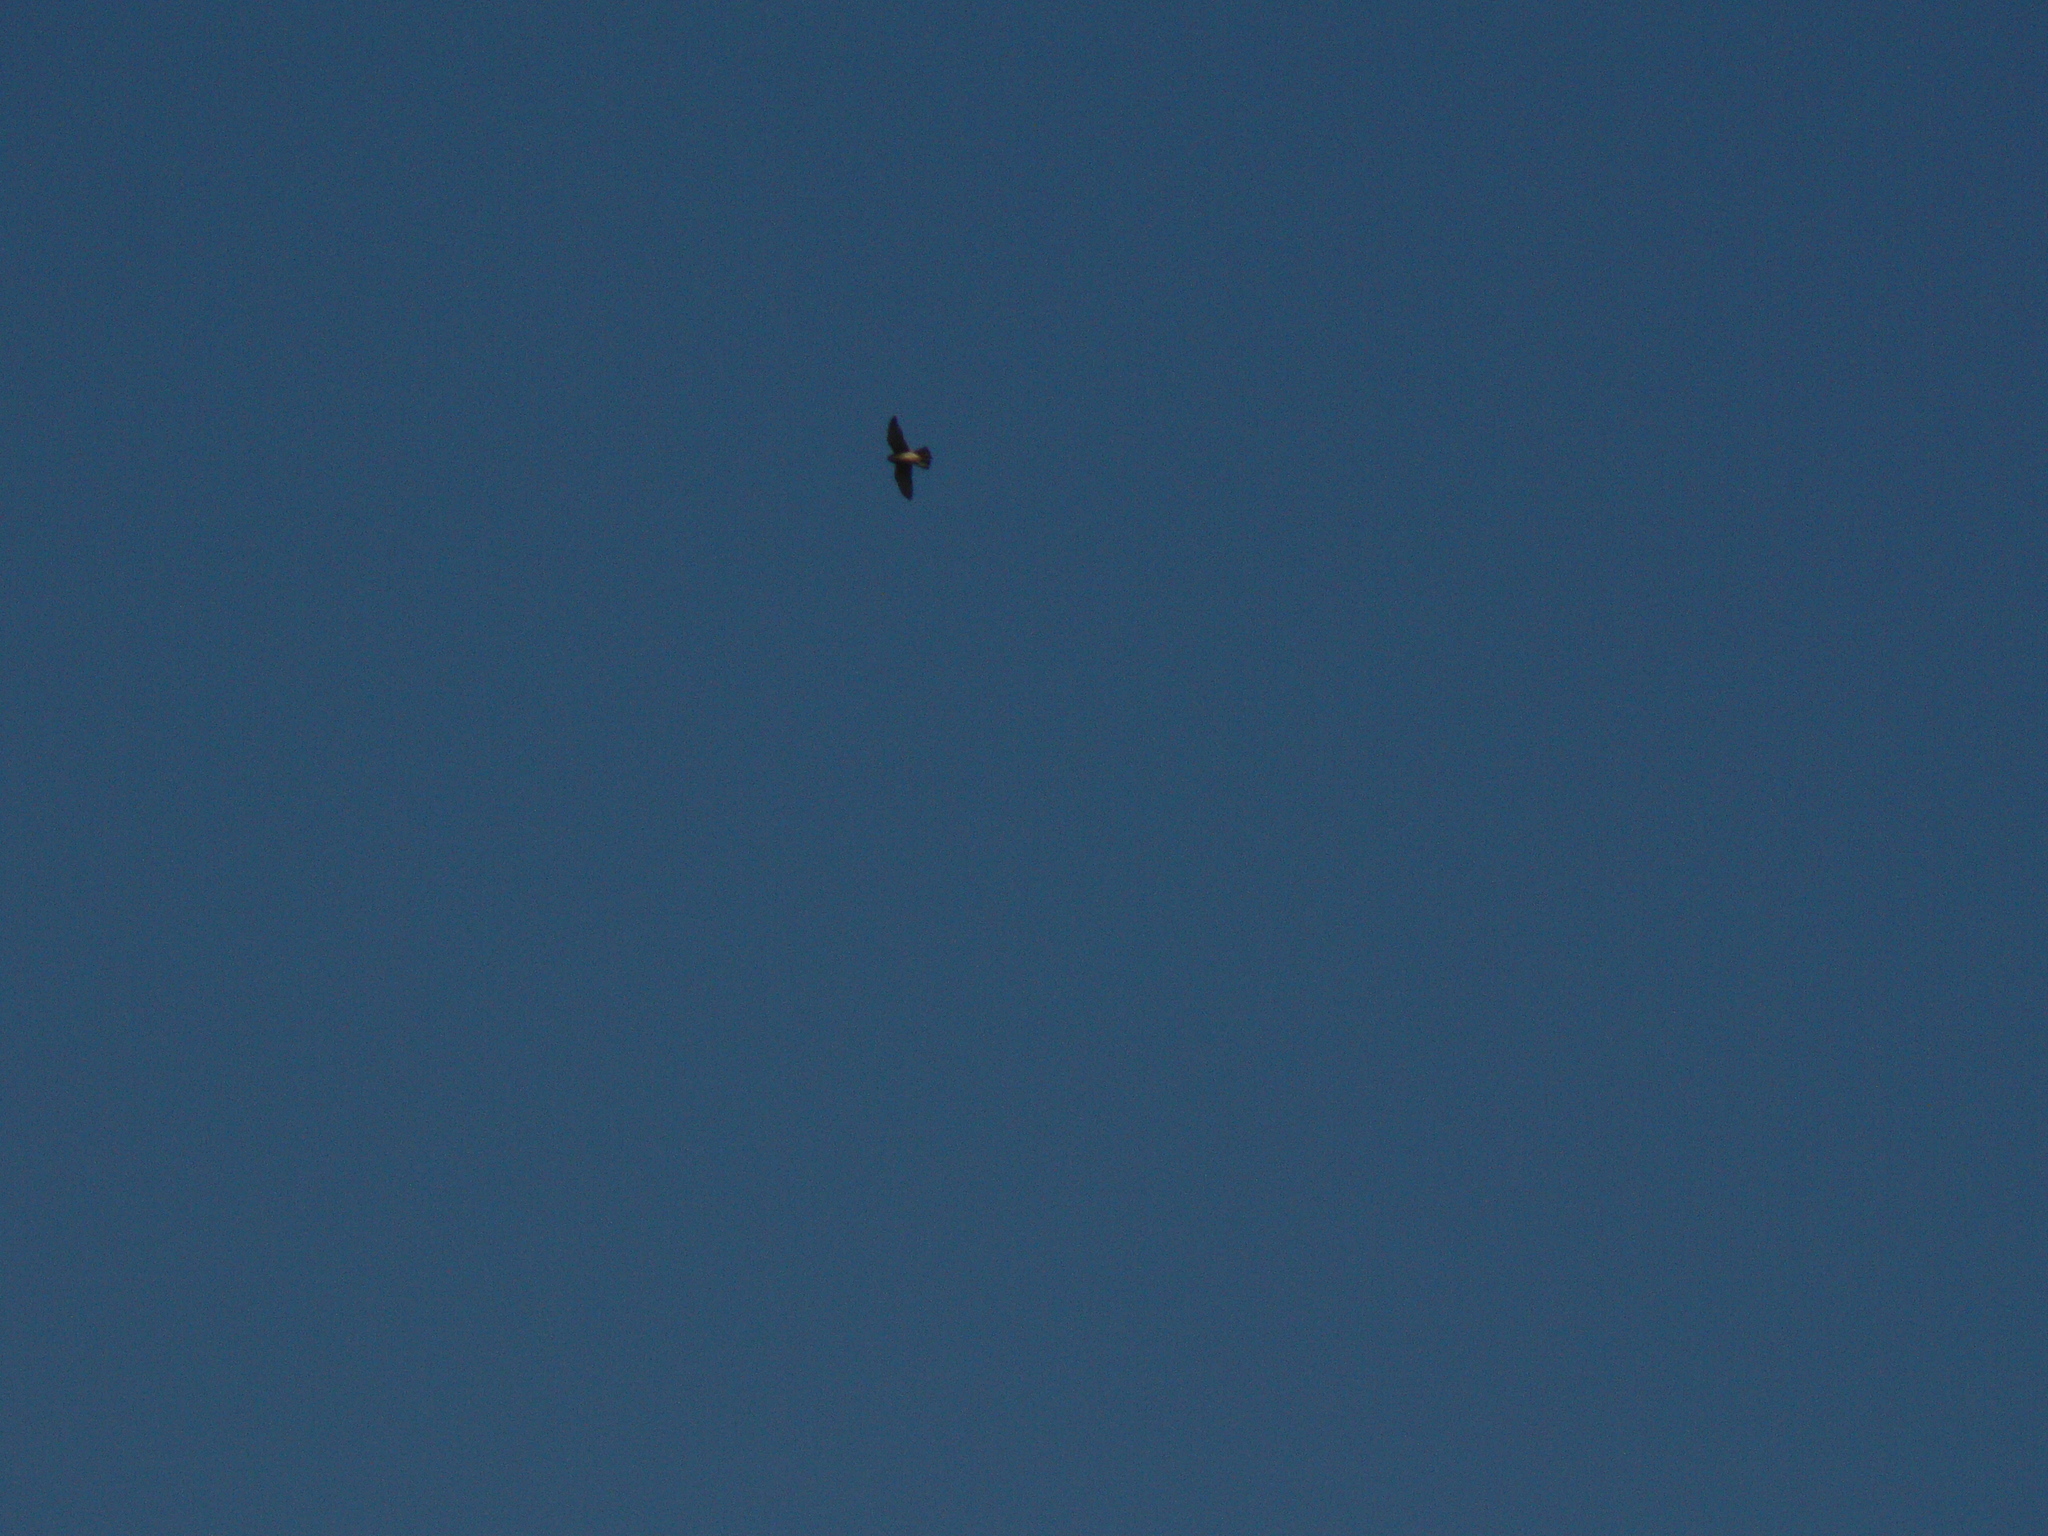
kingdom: Animalia
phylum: Chordata
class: Aves
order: Falconiformes
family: Falconidae
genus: Falco
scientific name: Falco tinnunculus
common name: Common kestrel
